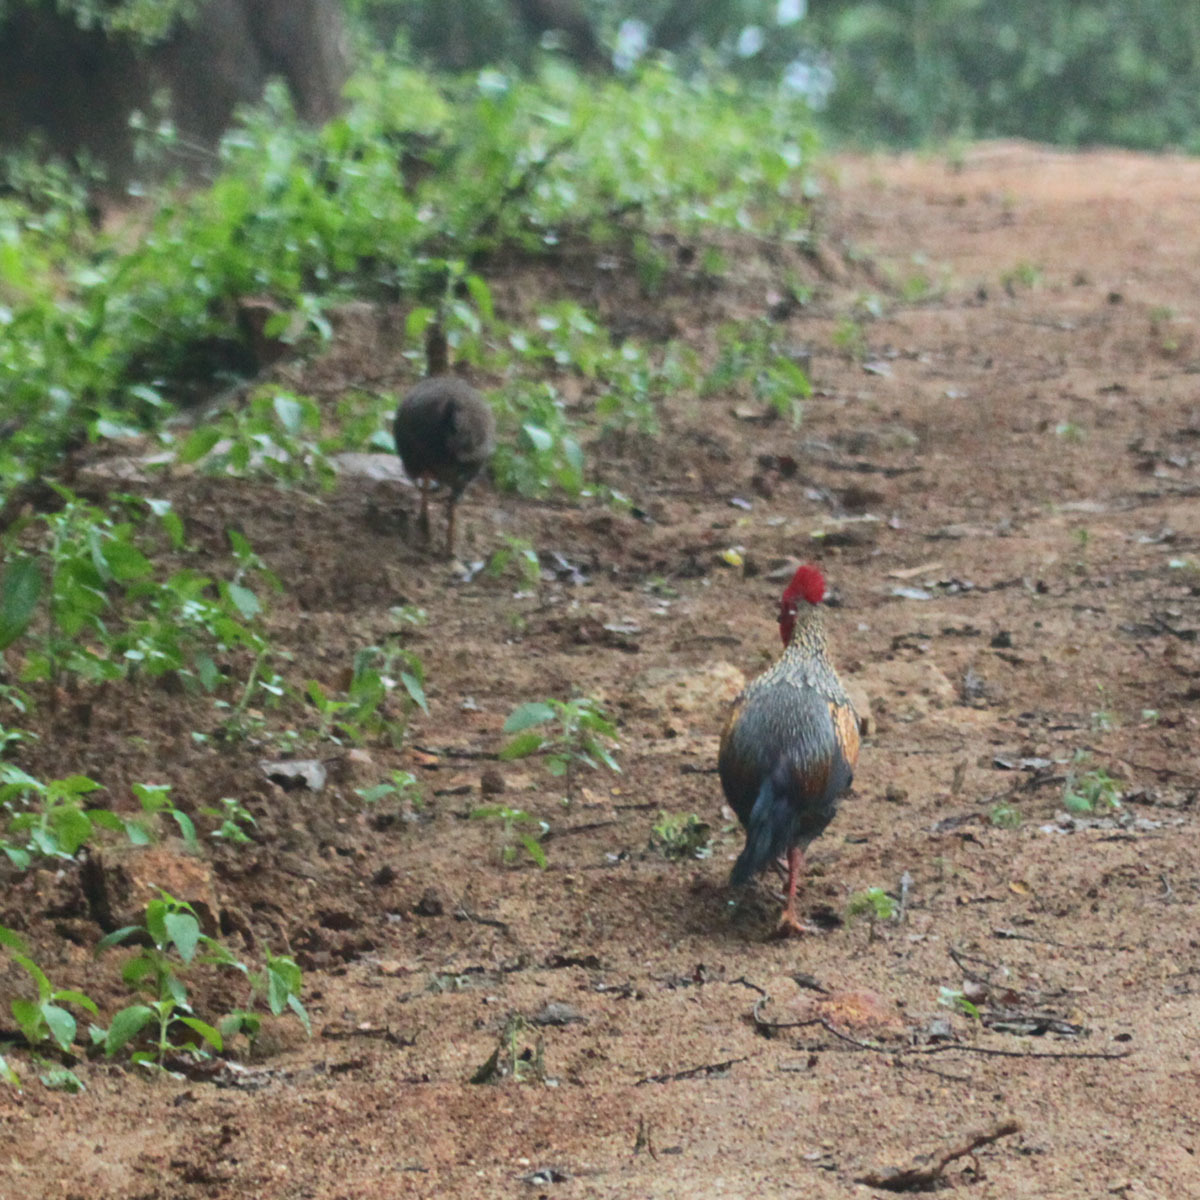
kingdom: Animalia
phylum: Chordata
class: Aves
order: Galliformes
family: Phasianidae
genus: Gallus
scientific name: Gallus sonneratii
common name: Grey junglefowl
